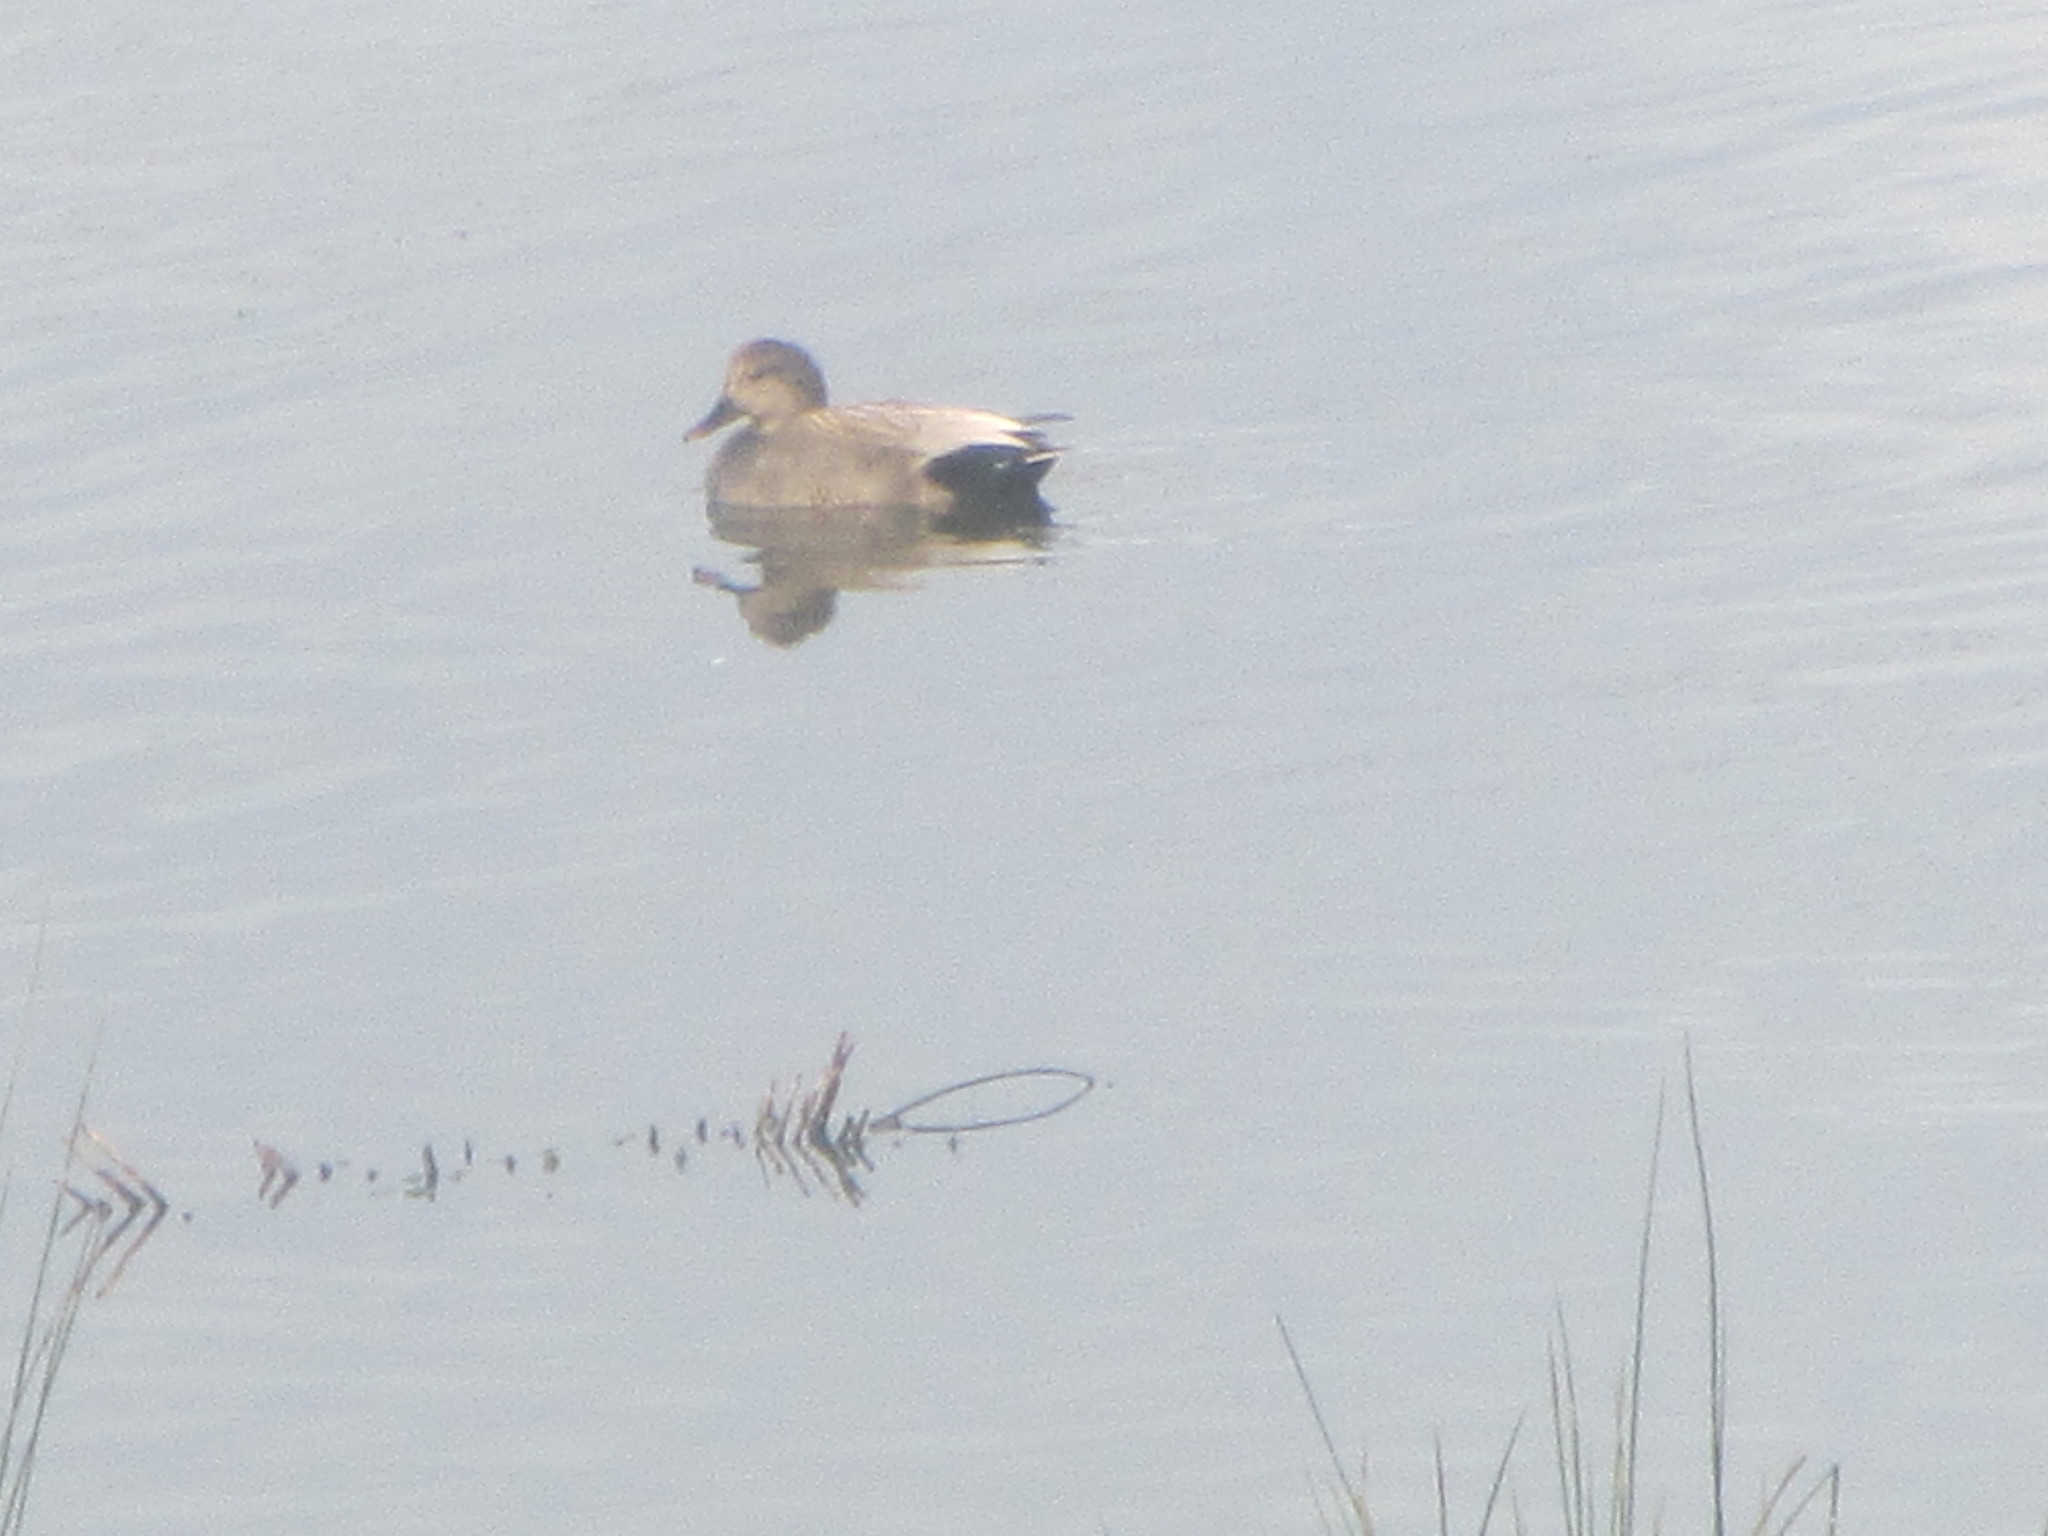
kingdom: Animalia
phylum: Chordata
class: Aves
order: Anseriformes
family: Anatidae
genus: Mareca
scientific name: Mareca strepera
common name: Gadwall
